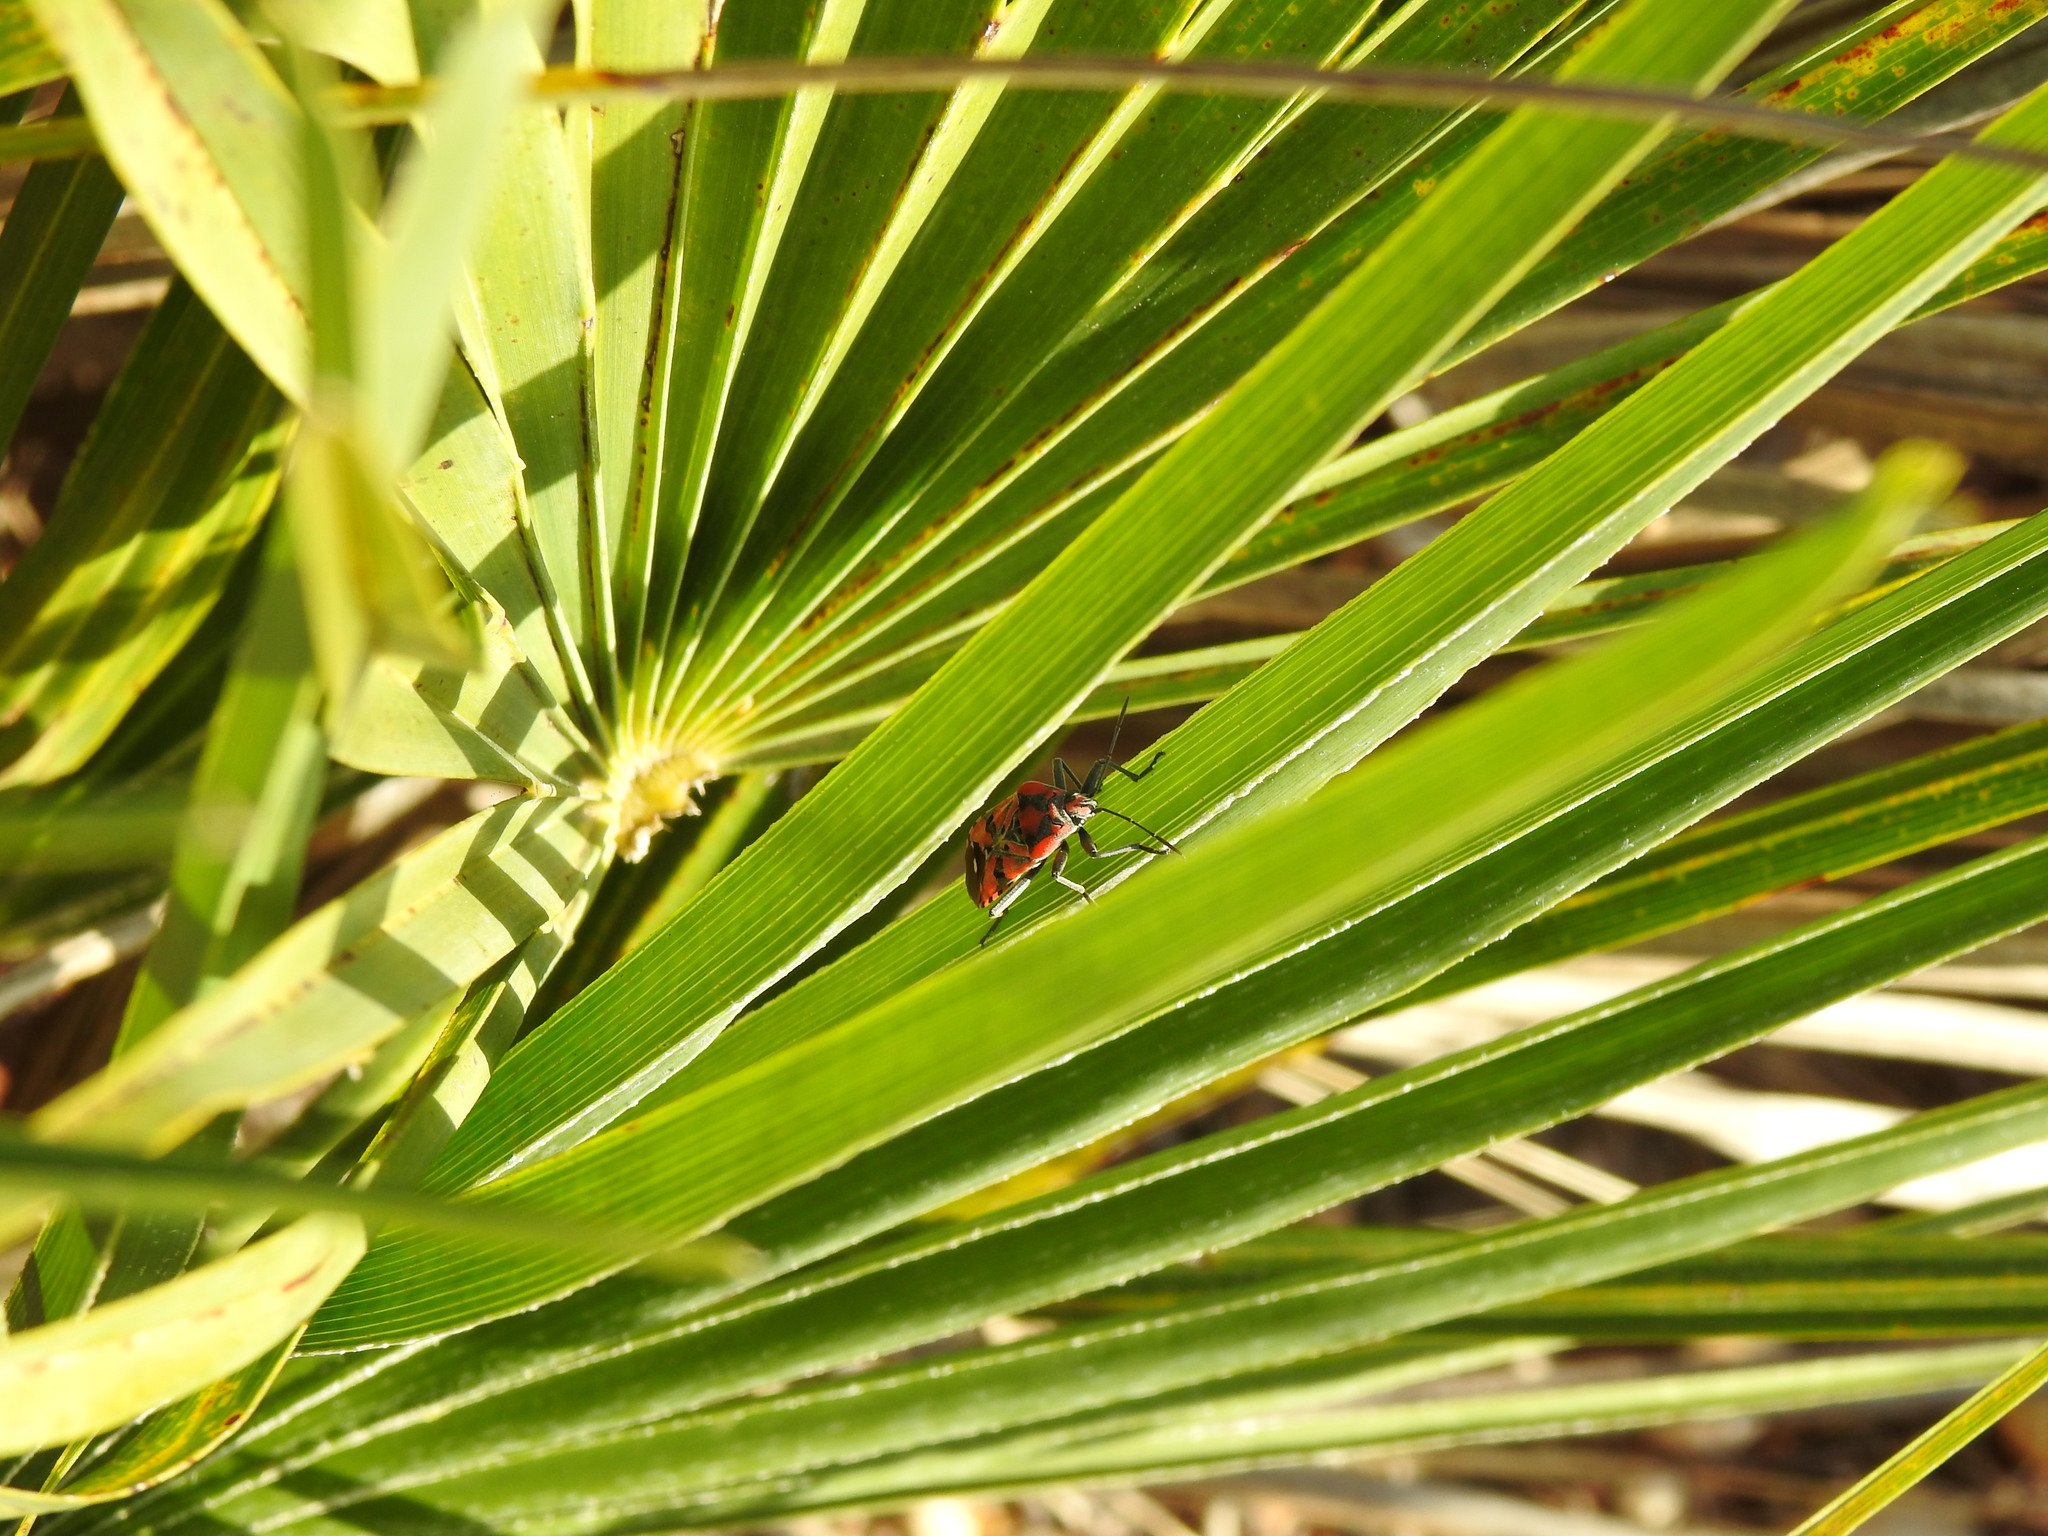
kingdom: Plantae
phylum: Tracheophyta
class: Liliopsida
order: Arecales
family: Arecaceae
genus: Chamaerops
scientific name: Chamaerops humilis
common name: Dwarf fan palm
